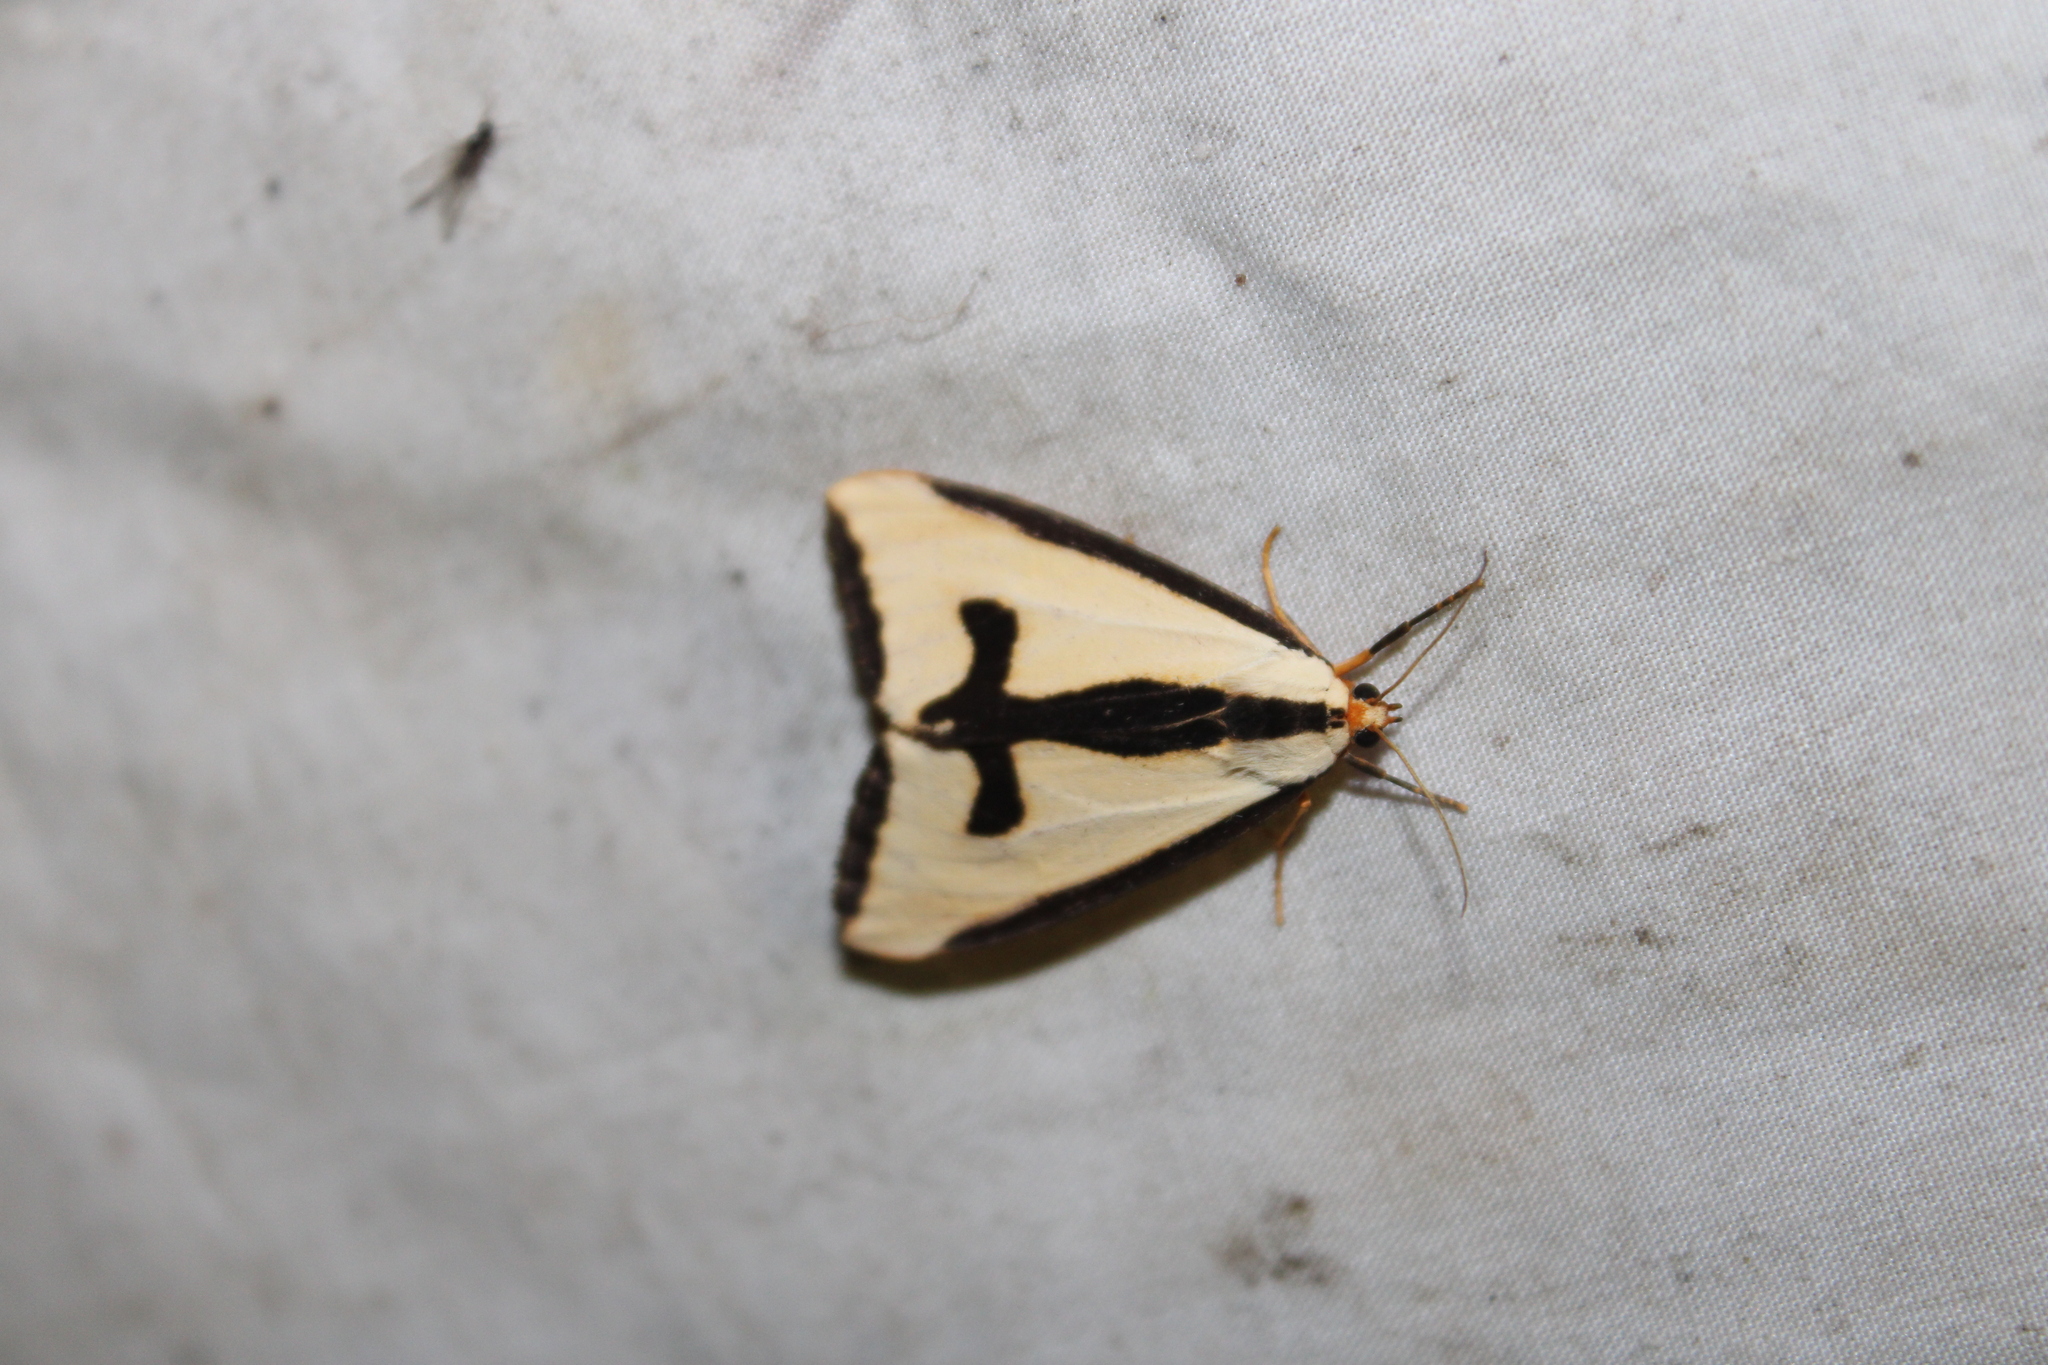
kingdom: Animalia
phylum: Arthropoda
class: Insecta
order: Lepidoptera
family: Erebidae
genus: Haploa
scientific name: Haploa clymene
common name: Clymene moth
